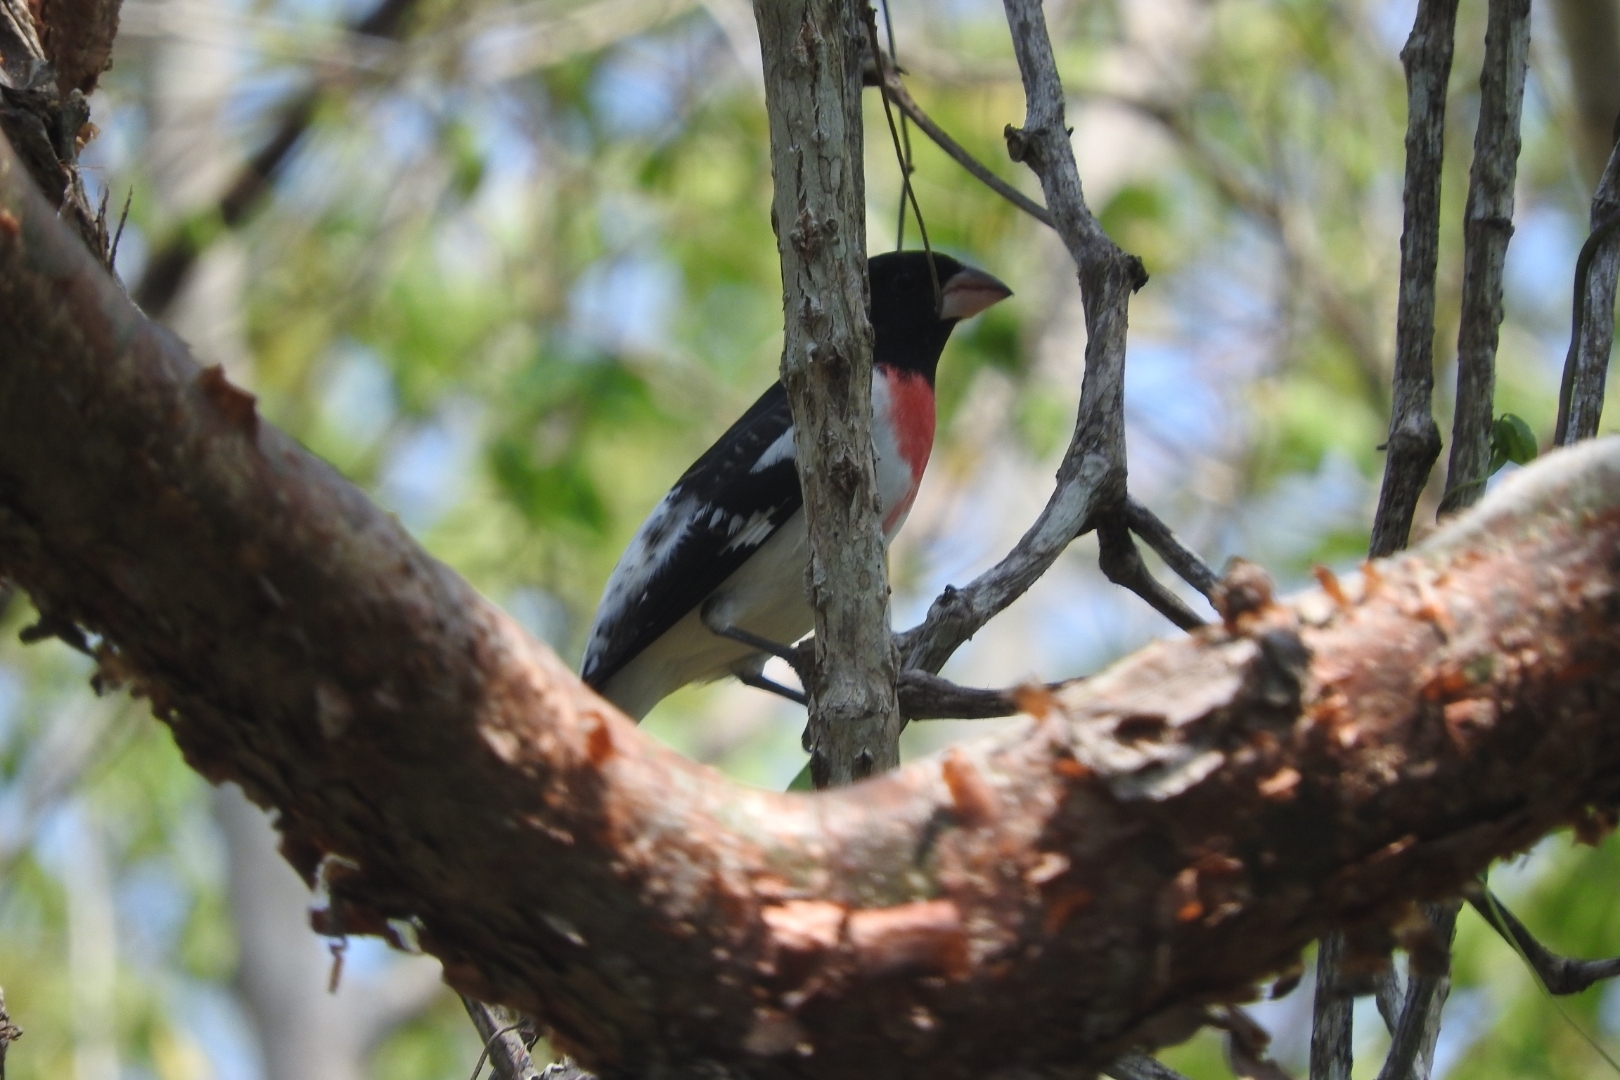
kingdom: Animalia
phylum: Chordata
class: Aves
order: Passeriformes
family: Cardinalidae
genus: Pheucticus
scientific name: Pheucticus ludovicianus
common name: Rose-breasted grosbeak
